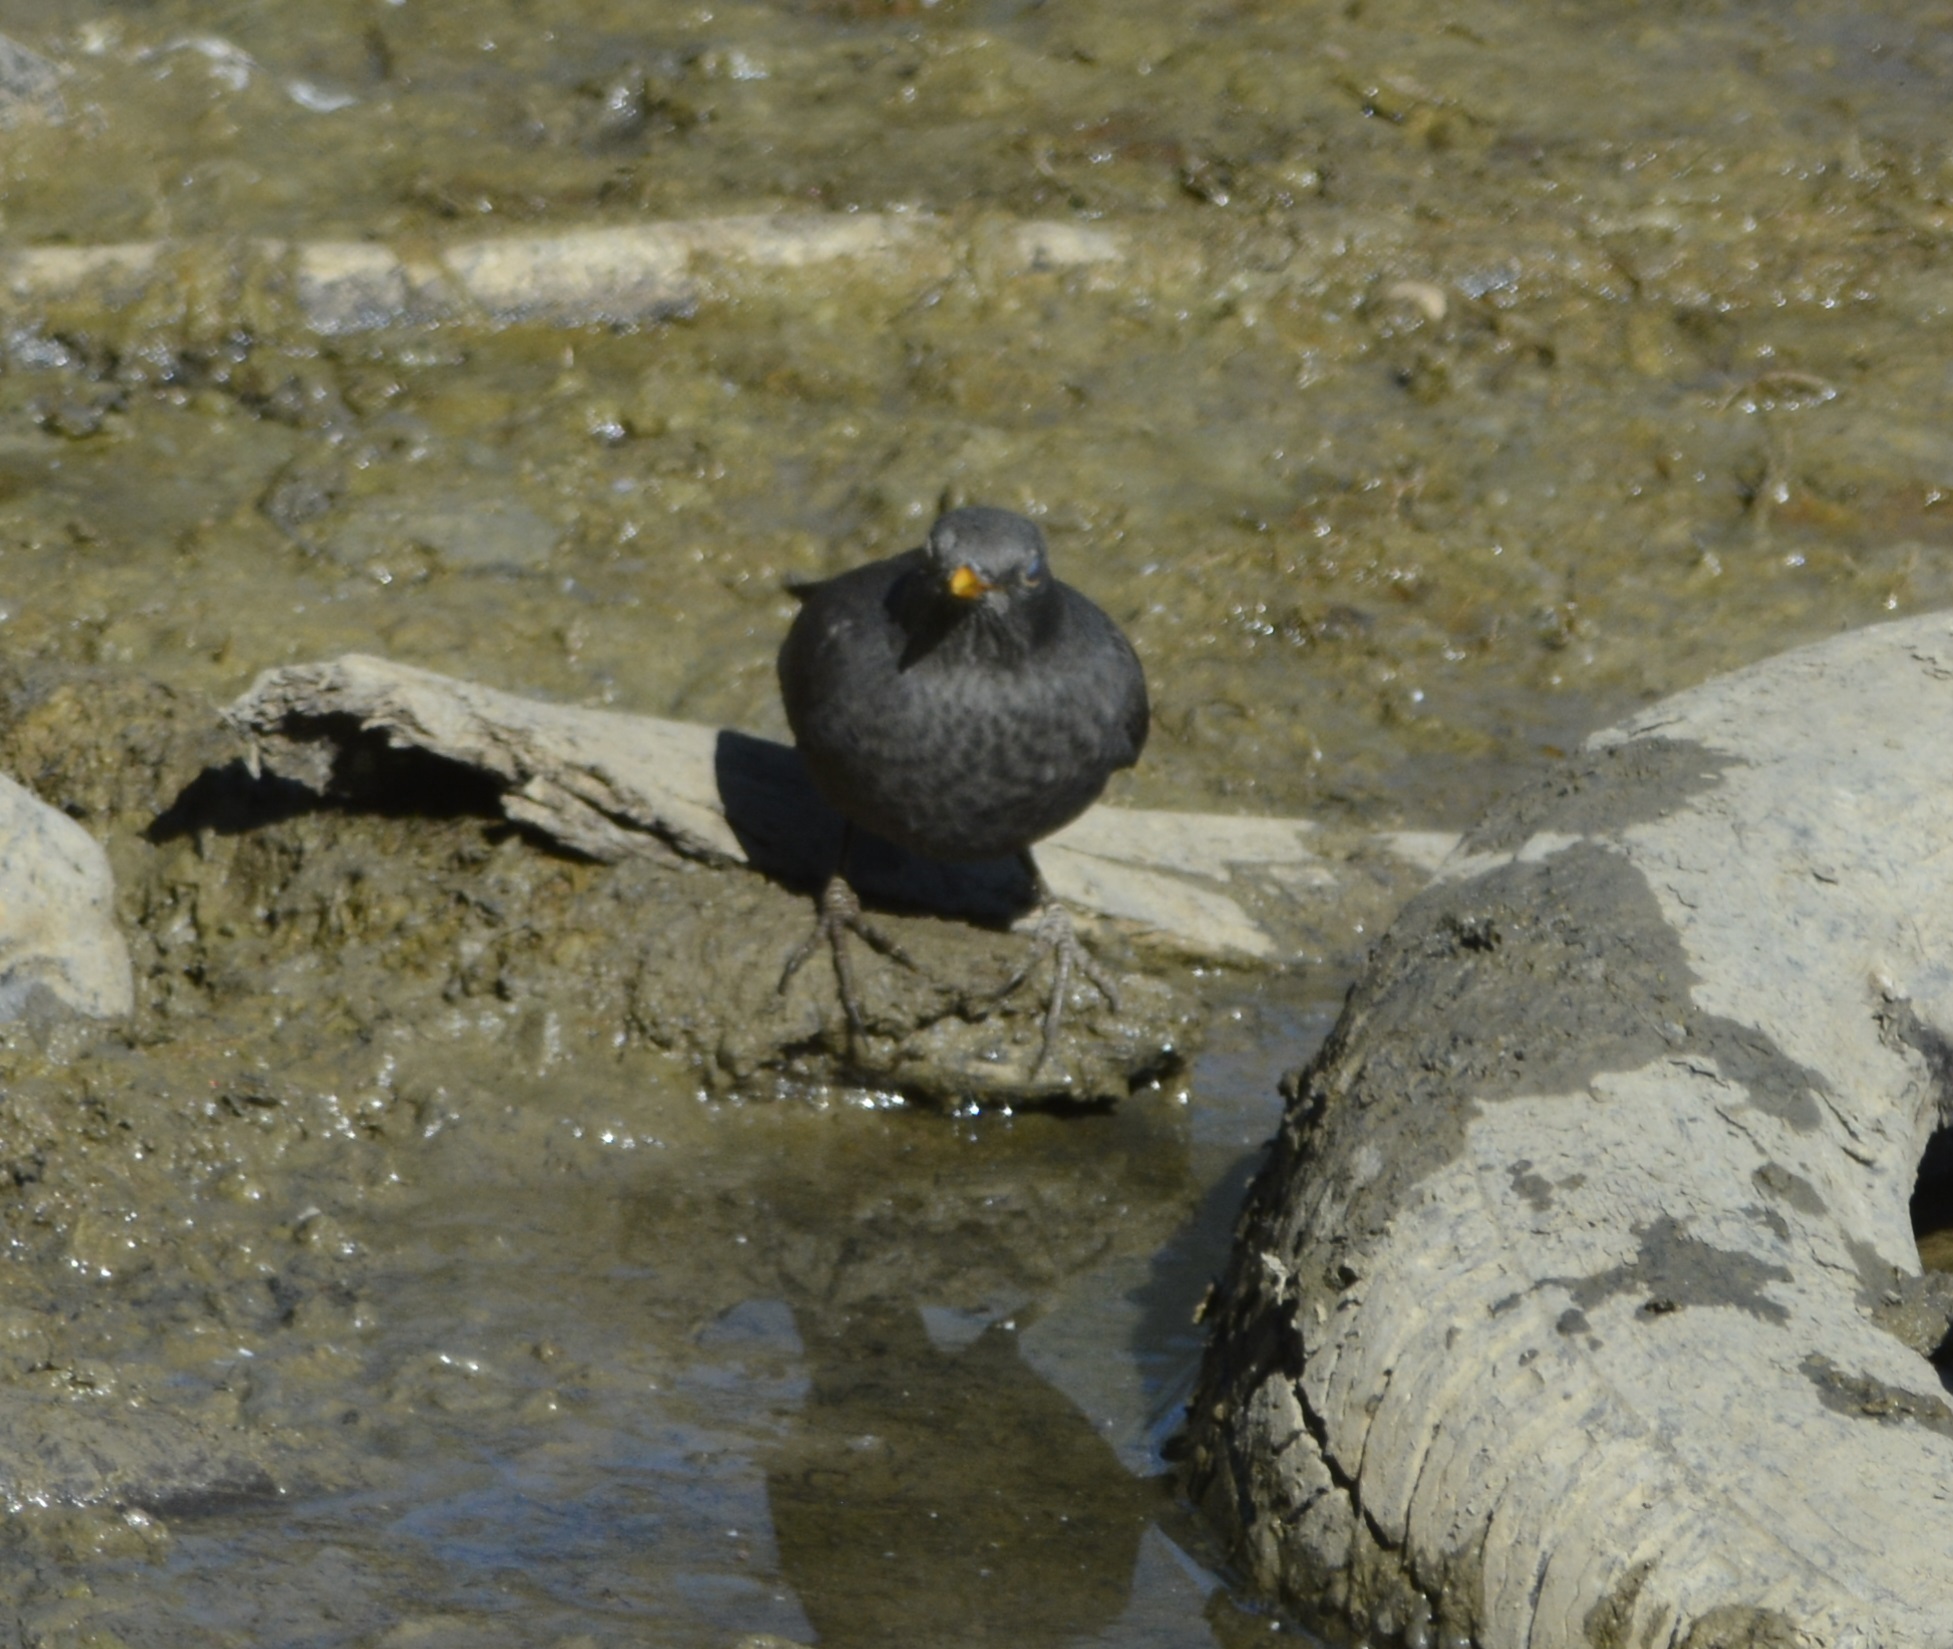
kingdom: Animalia
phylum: Chordata
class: Aves
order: Passeriformes
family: Turdidae
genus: Turdus
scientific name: Turdus merula
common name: Common blackbird
